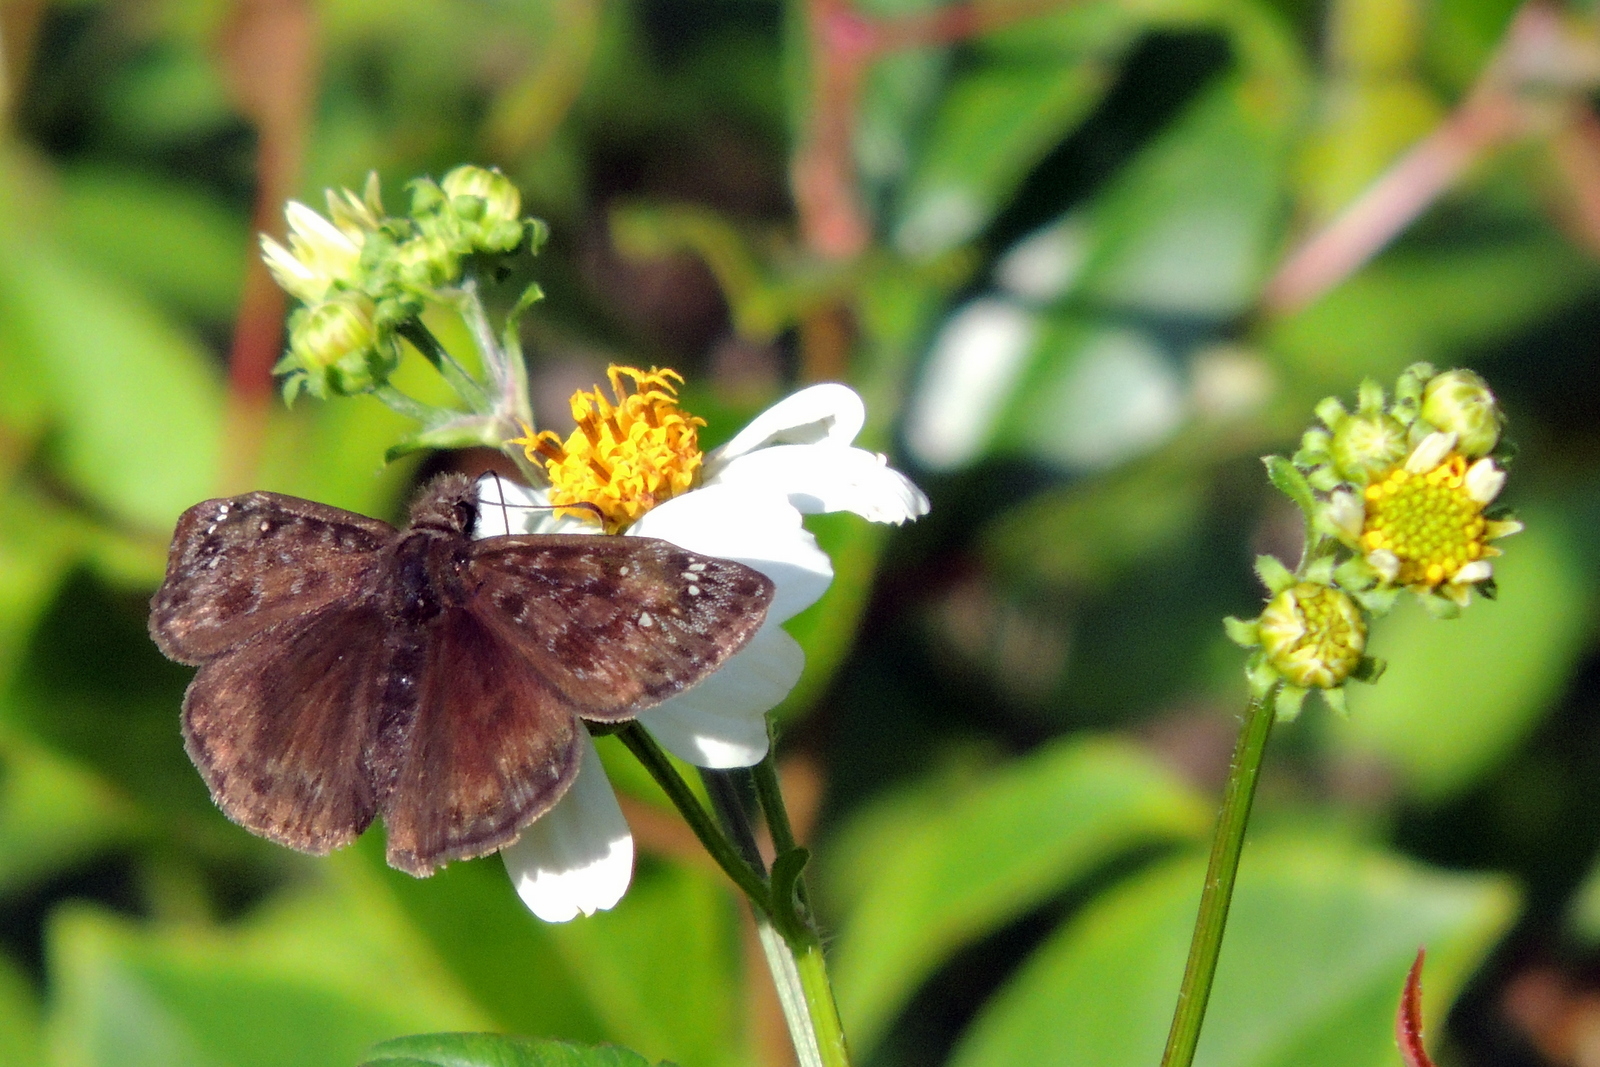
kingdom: Animalia
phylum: Arthropoda
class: Insecta
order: Lepidoptera
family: Hesperiidae
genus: Erynnis
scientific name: Erynnis horatius
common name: Horace's duskywing
